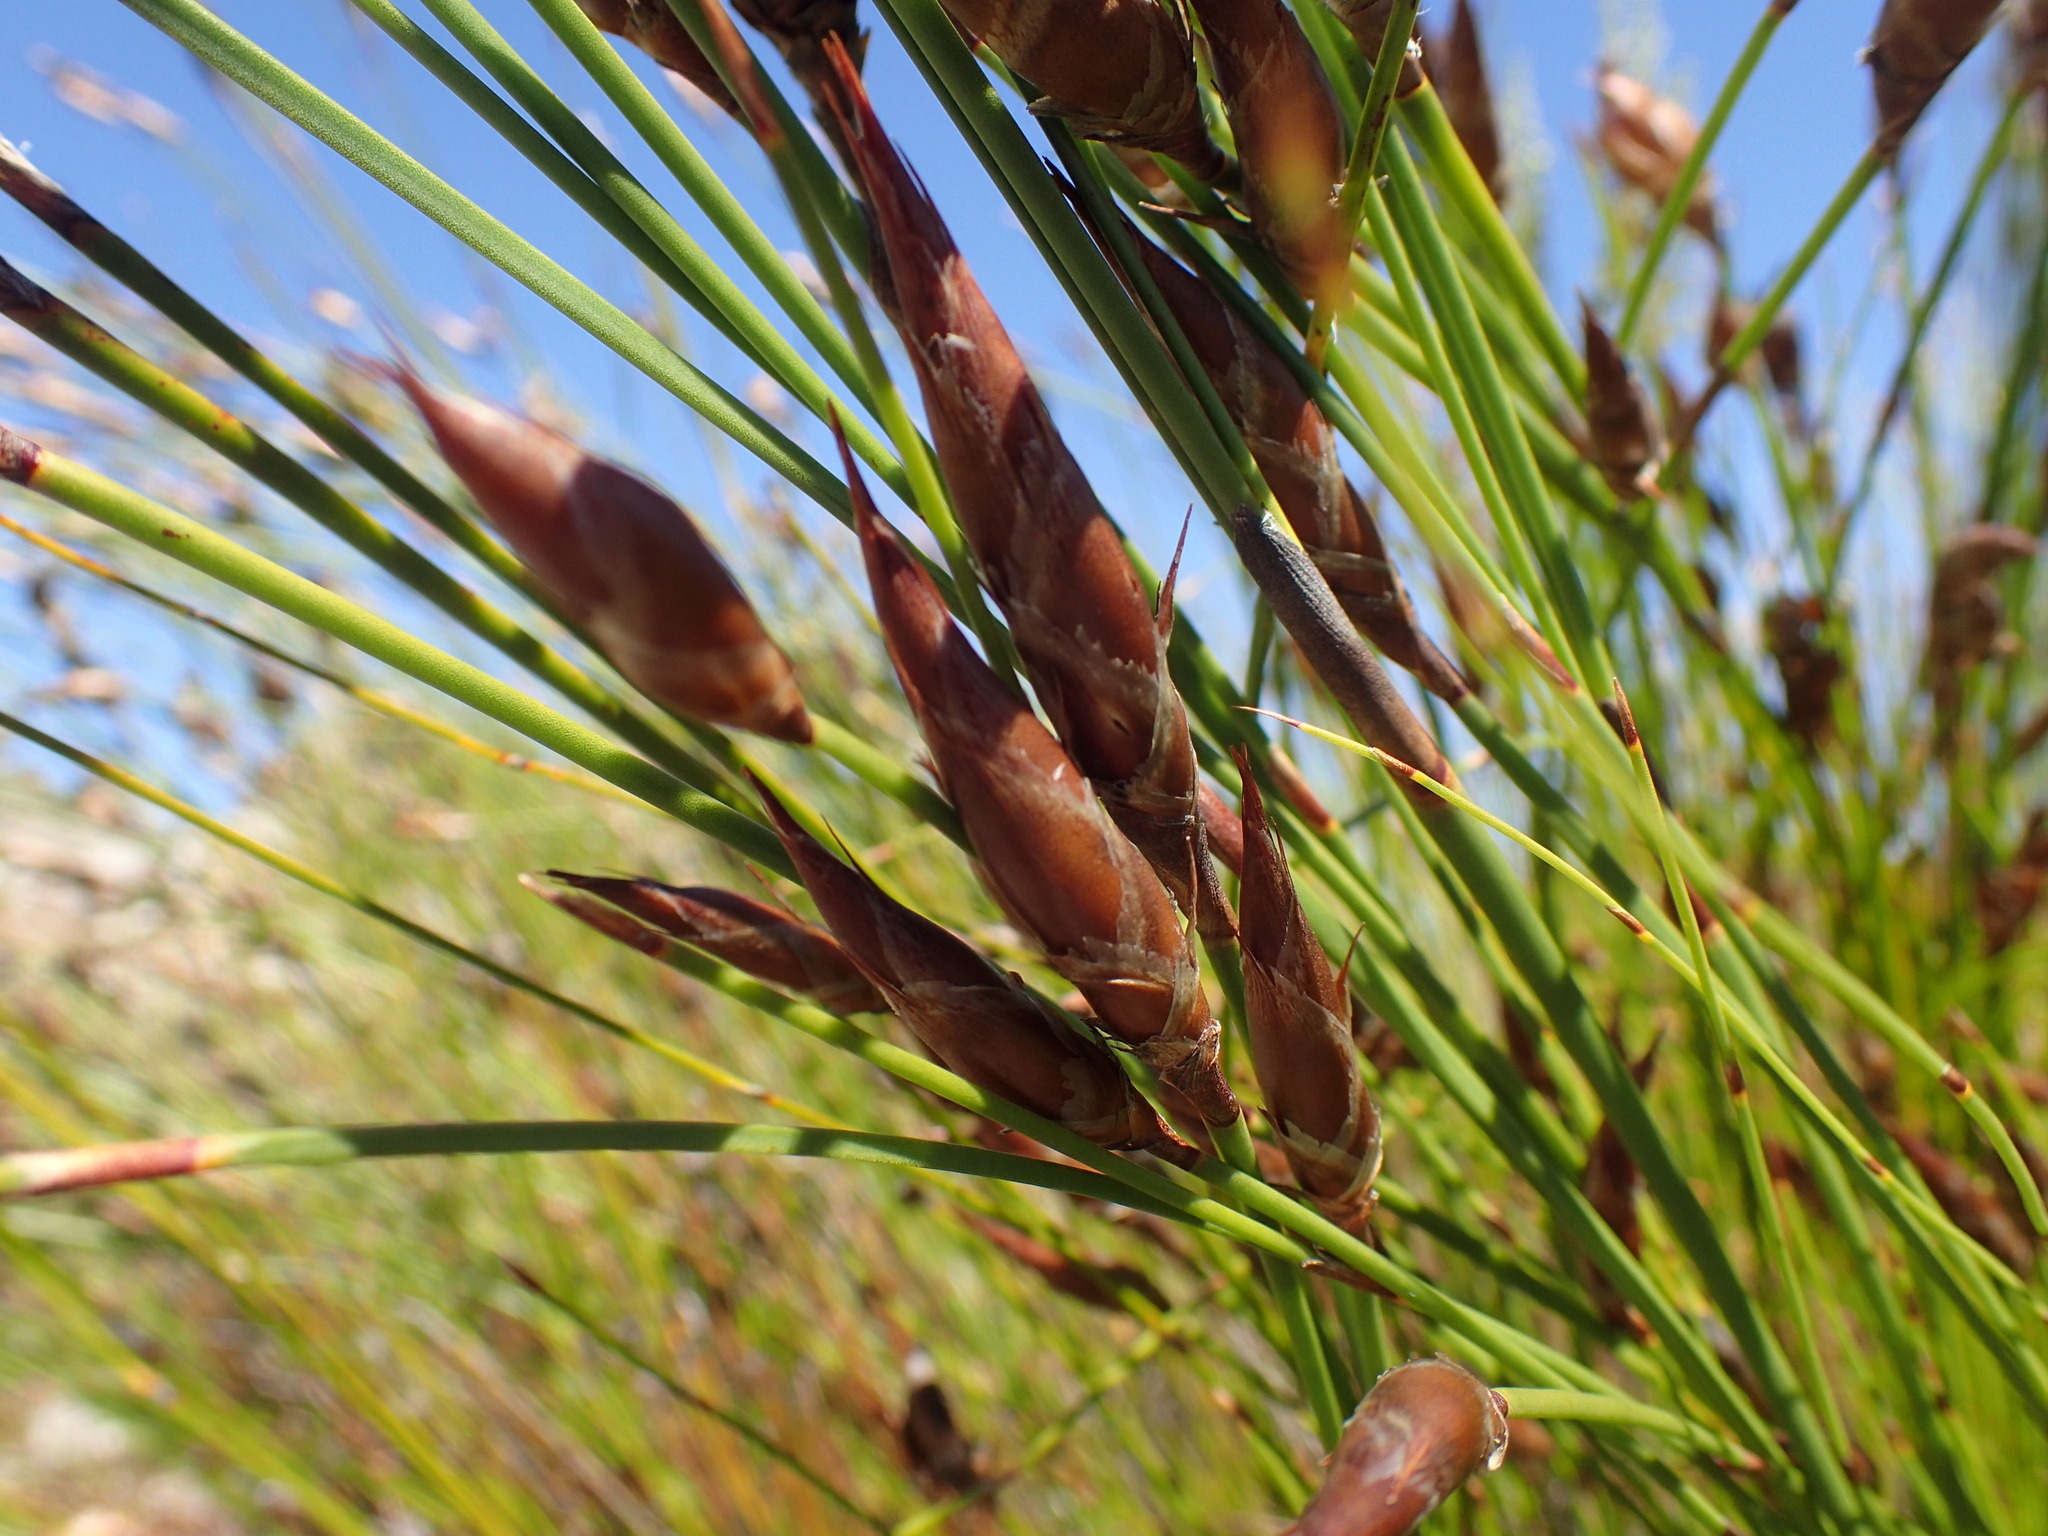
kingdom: Plantae
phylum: Tracheophyta
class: Liliopsida
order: Poales
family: Restionaceae
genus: Cannomois
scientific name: Cannomois robusta
